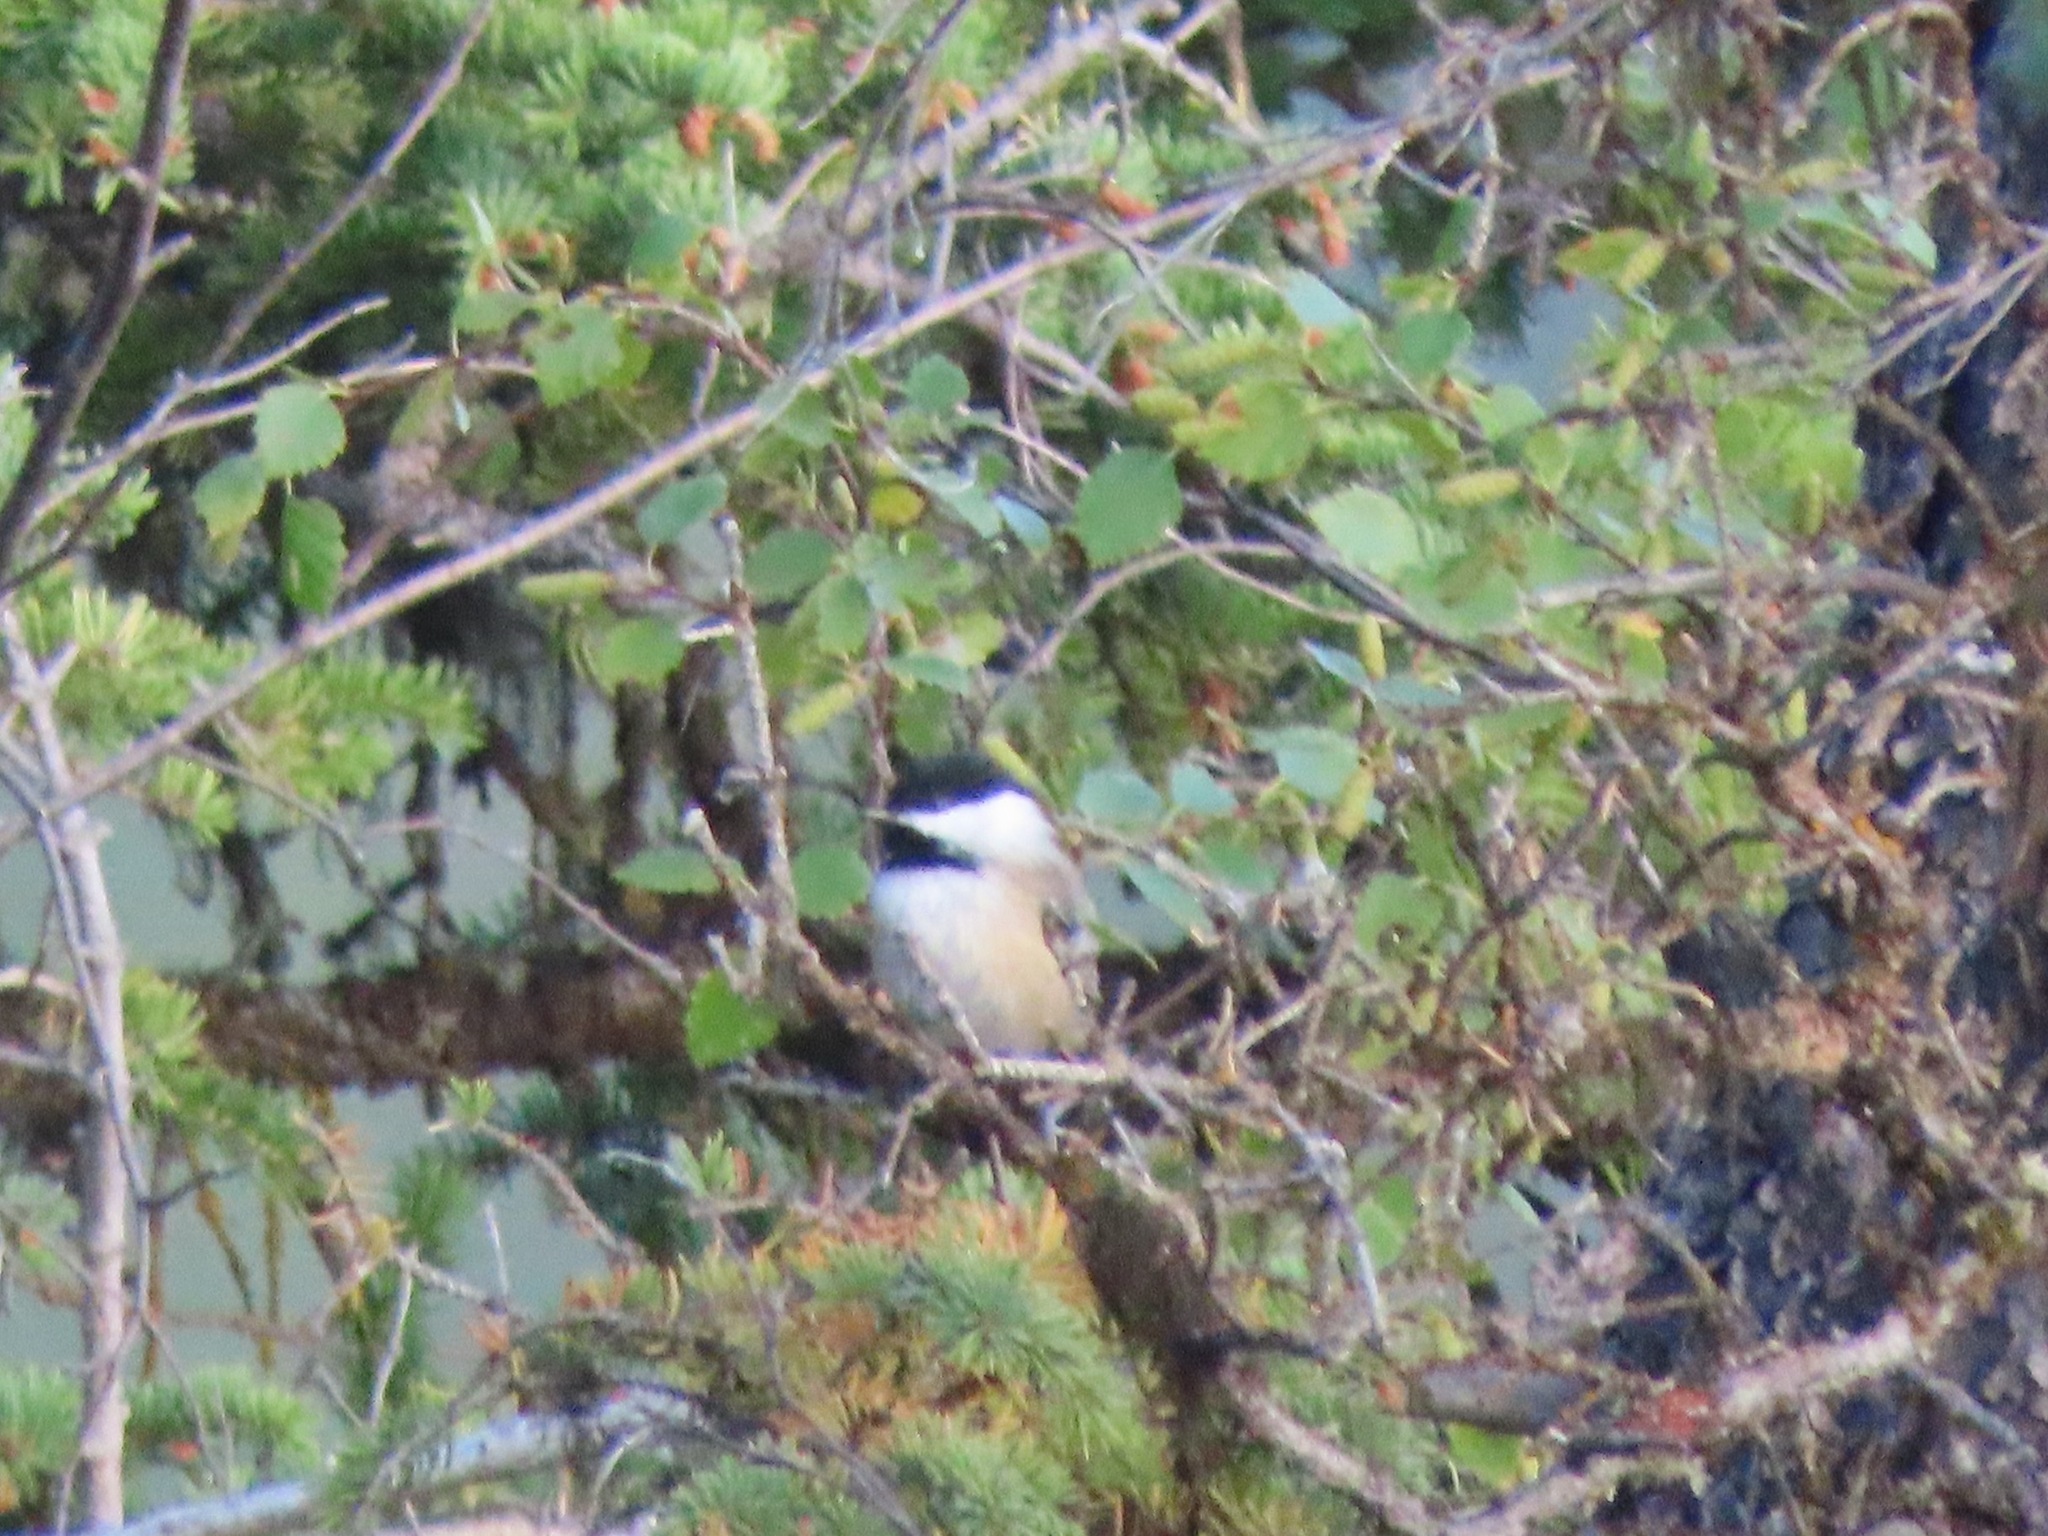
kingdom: Animalia
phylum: Chordata
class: Aves
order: Passeriformes
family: Paridae
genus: Poecile
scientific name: Poecile atricapillus
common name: Black-capped chickadee
